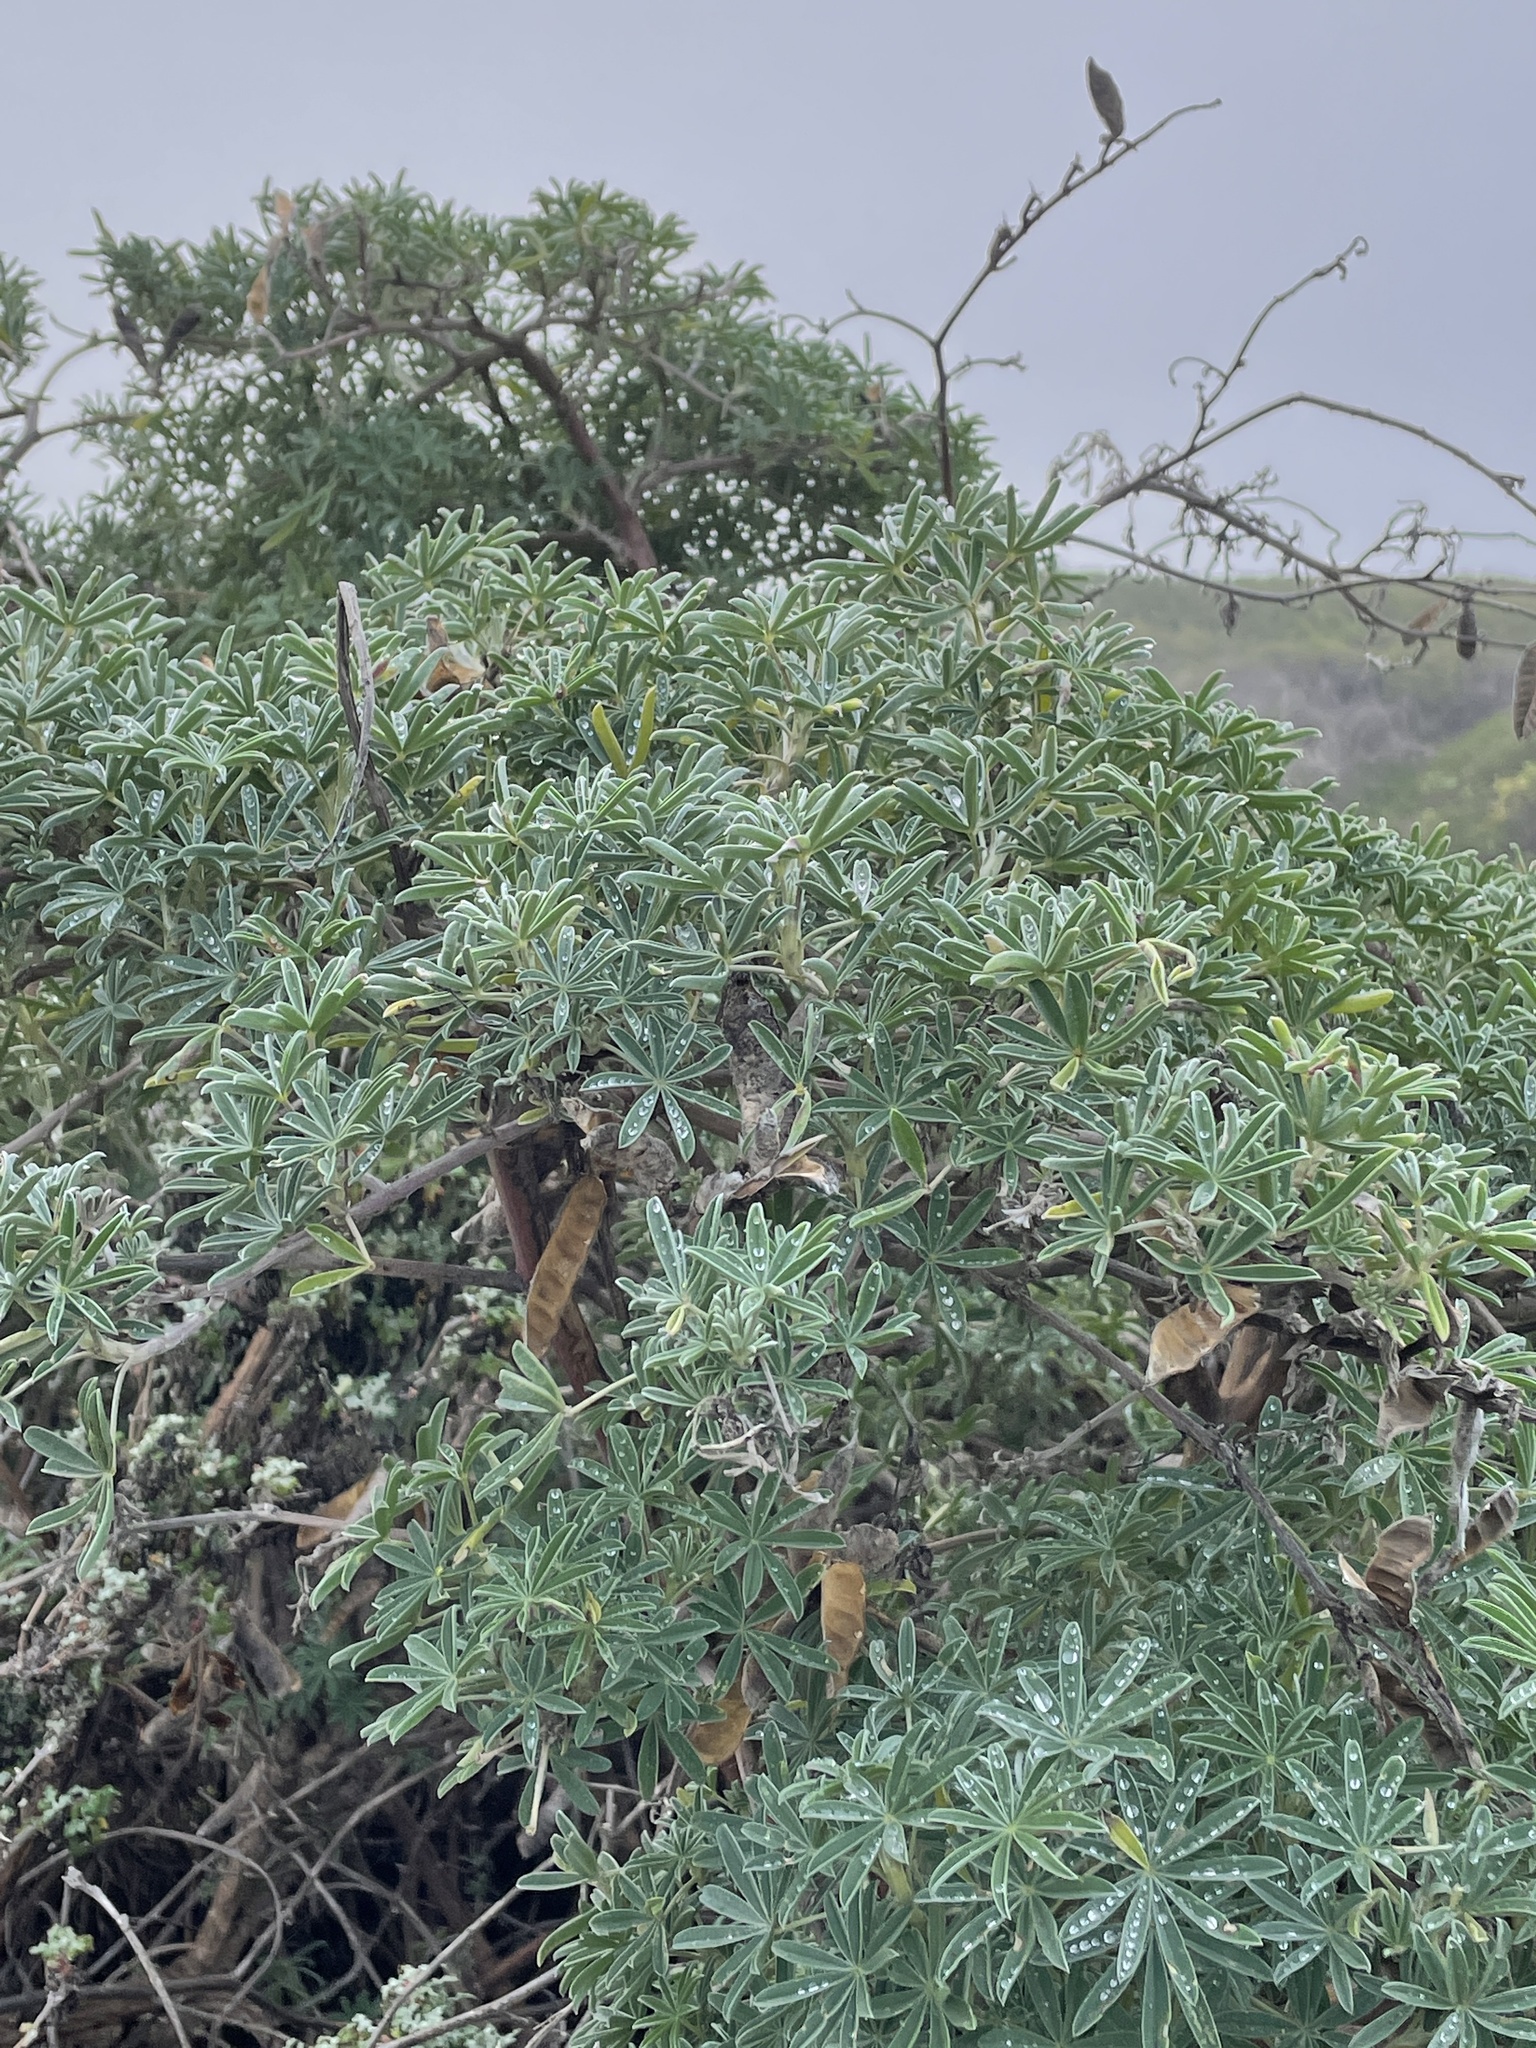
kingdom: Plantae
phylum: Tracheophyta
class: Magnoliopsida
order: Fabales
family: Fabaceae
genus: Lupinus
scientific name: Lupinus arboreus
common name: Yellow bush lupine
